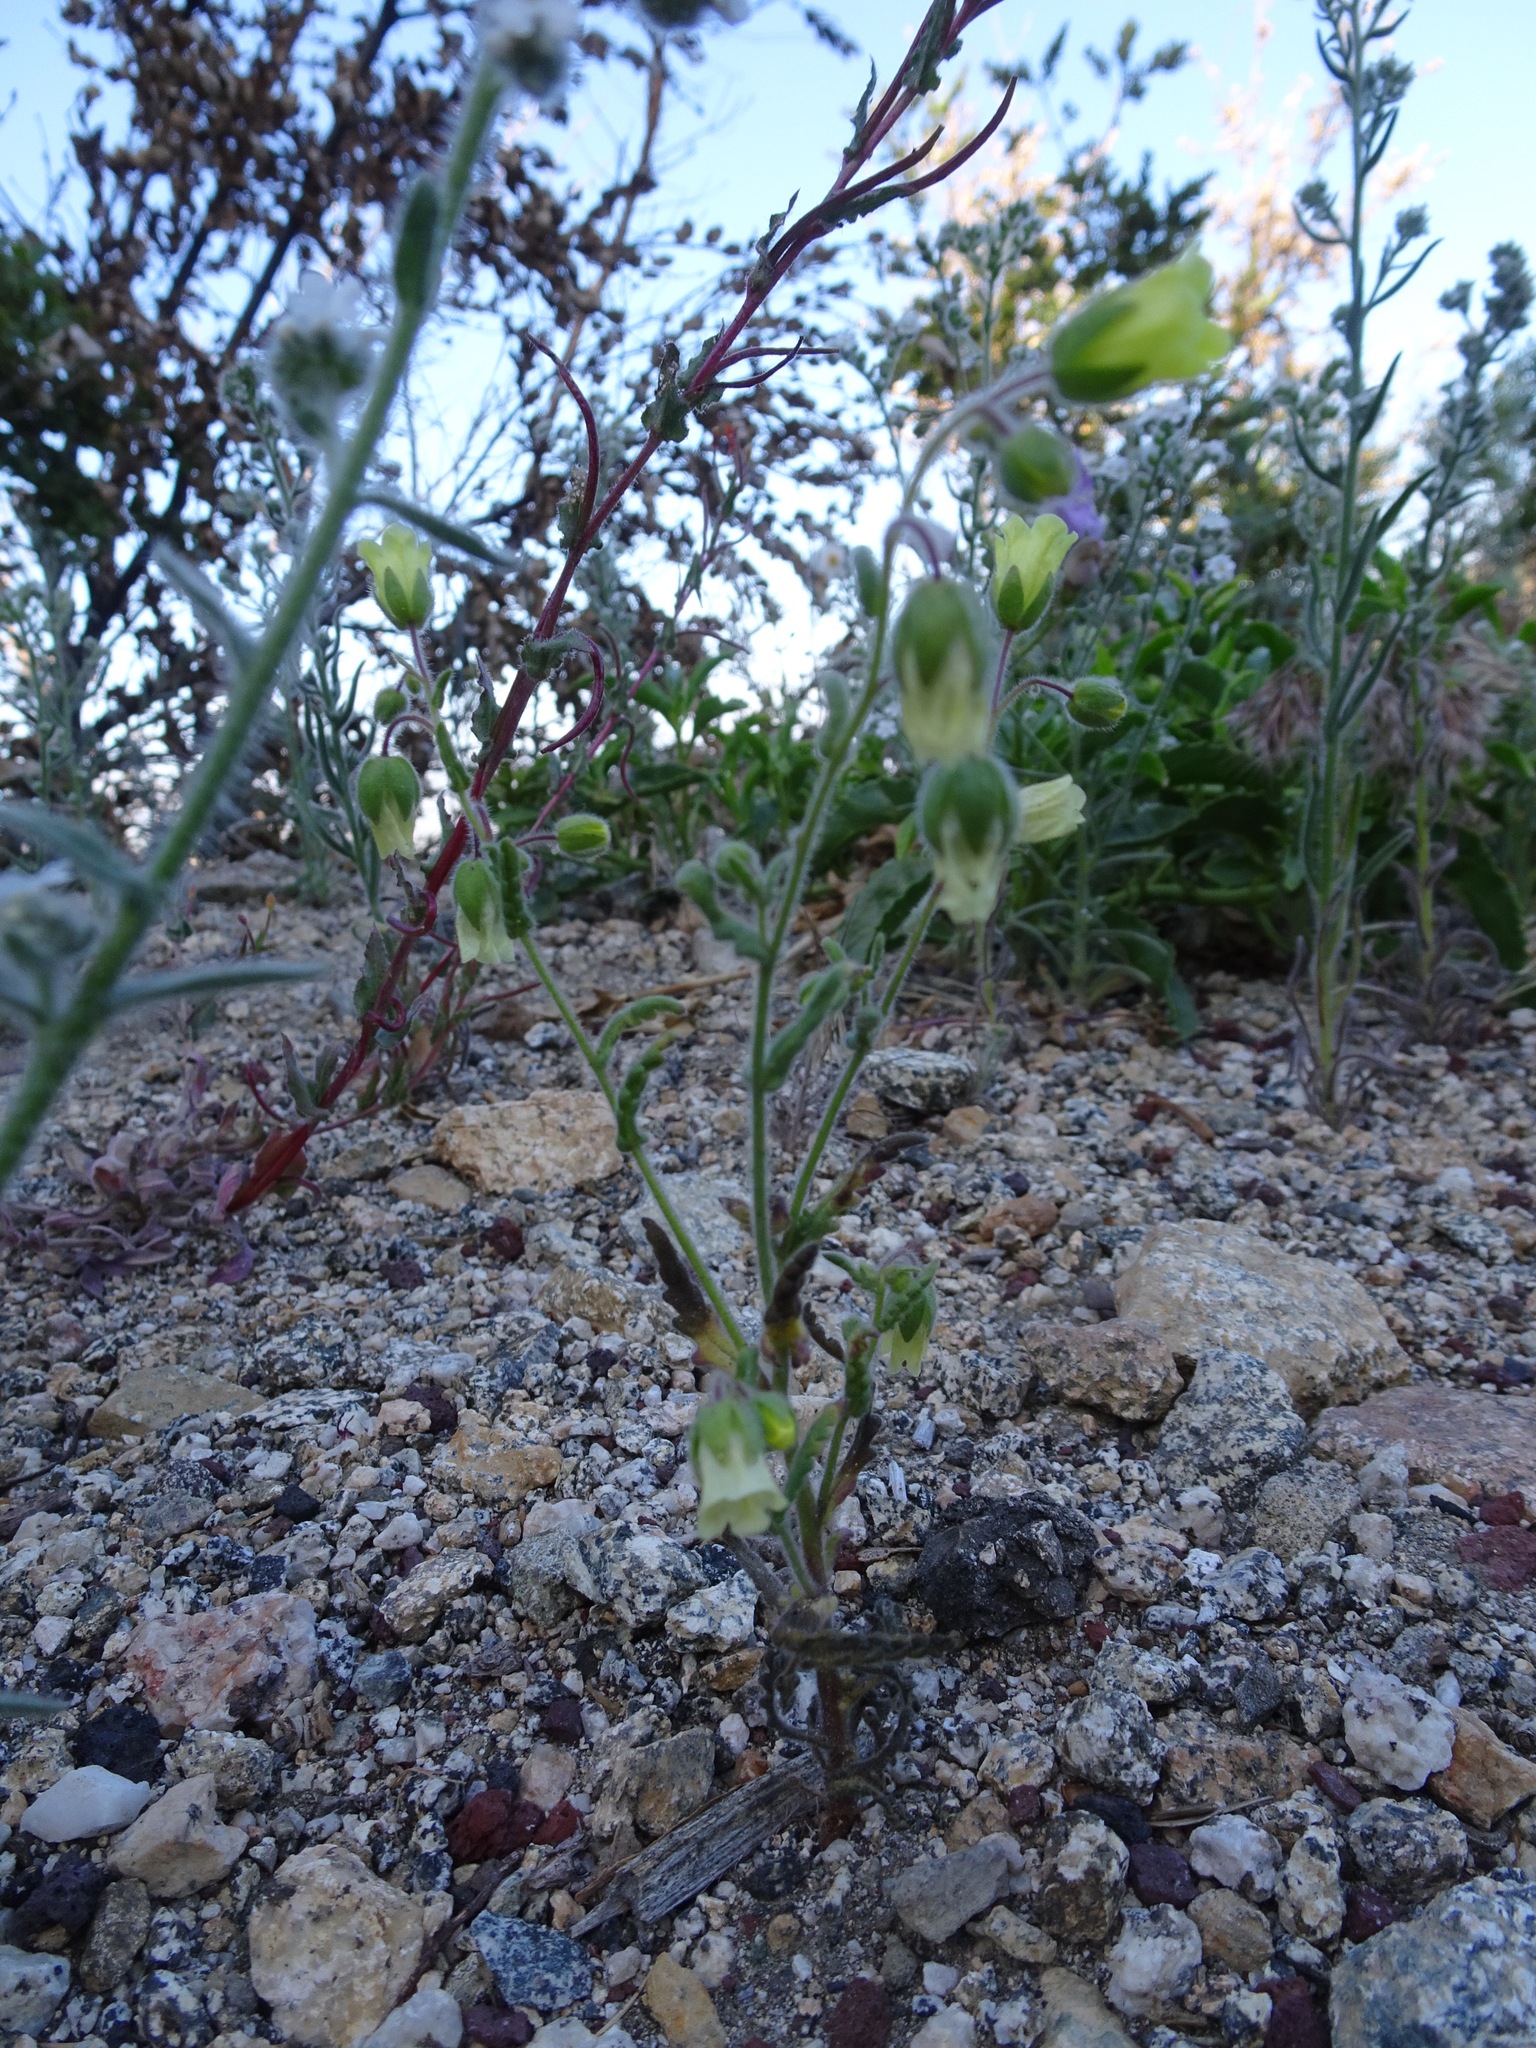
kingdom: Plantae
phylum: Tracheophyta
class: Magnoliopsida
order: Boraginales
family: Hydrophyllaceae
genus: Emmenanthe
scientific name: Emmenanthe penduliflora
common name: Whispering-bells
